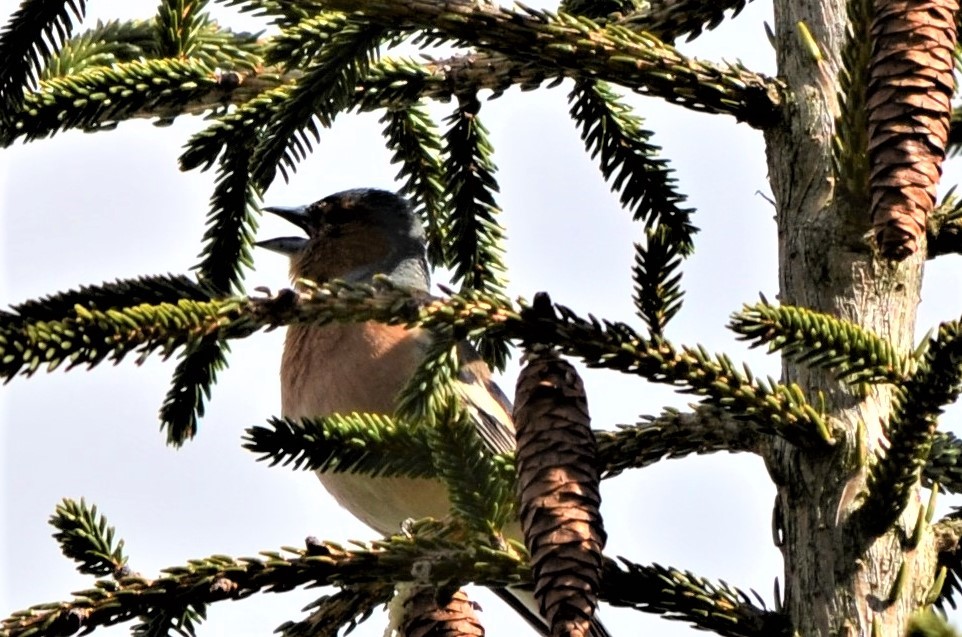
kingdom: Animalia
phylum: Chordata
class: Aves
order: Passeriformes
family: Fringillidae
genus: Fringilla
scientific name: Fringilla coelebs
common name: Common chaffinch
